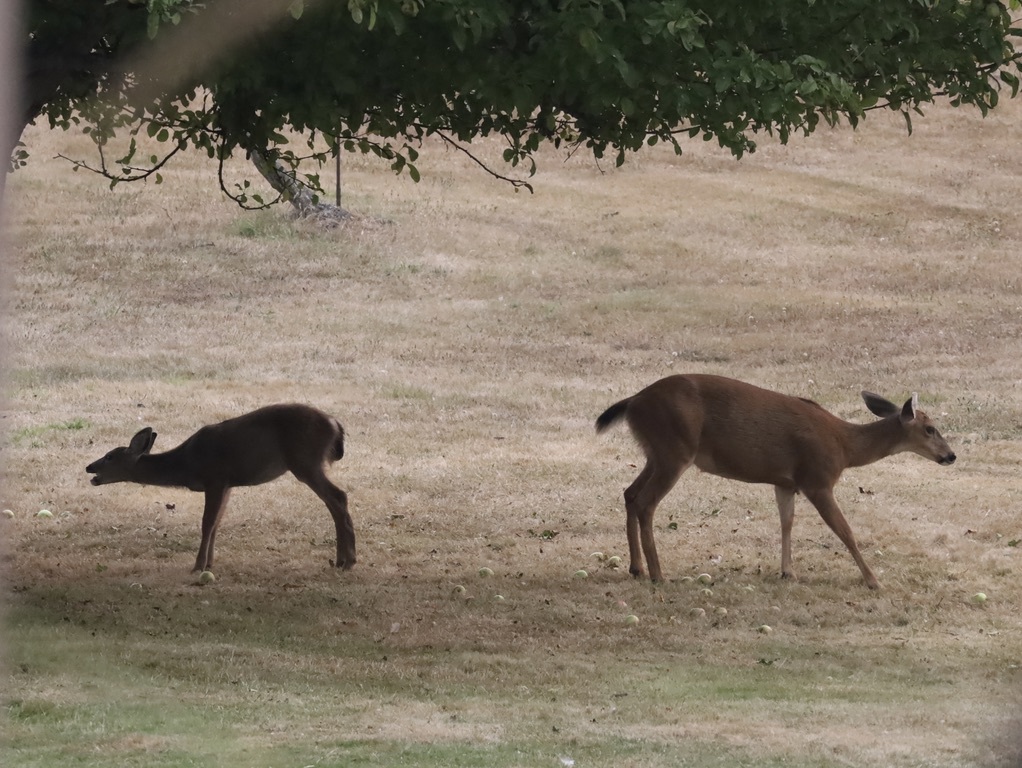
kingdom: Animalia
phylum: Chordata
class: Mammalia
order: Artiodactyla
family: Cervidae
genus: Odocoileus
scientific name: Odocoileus hemionus
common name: Mule deer
